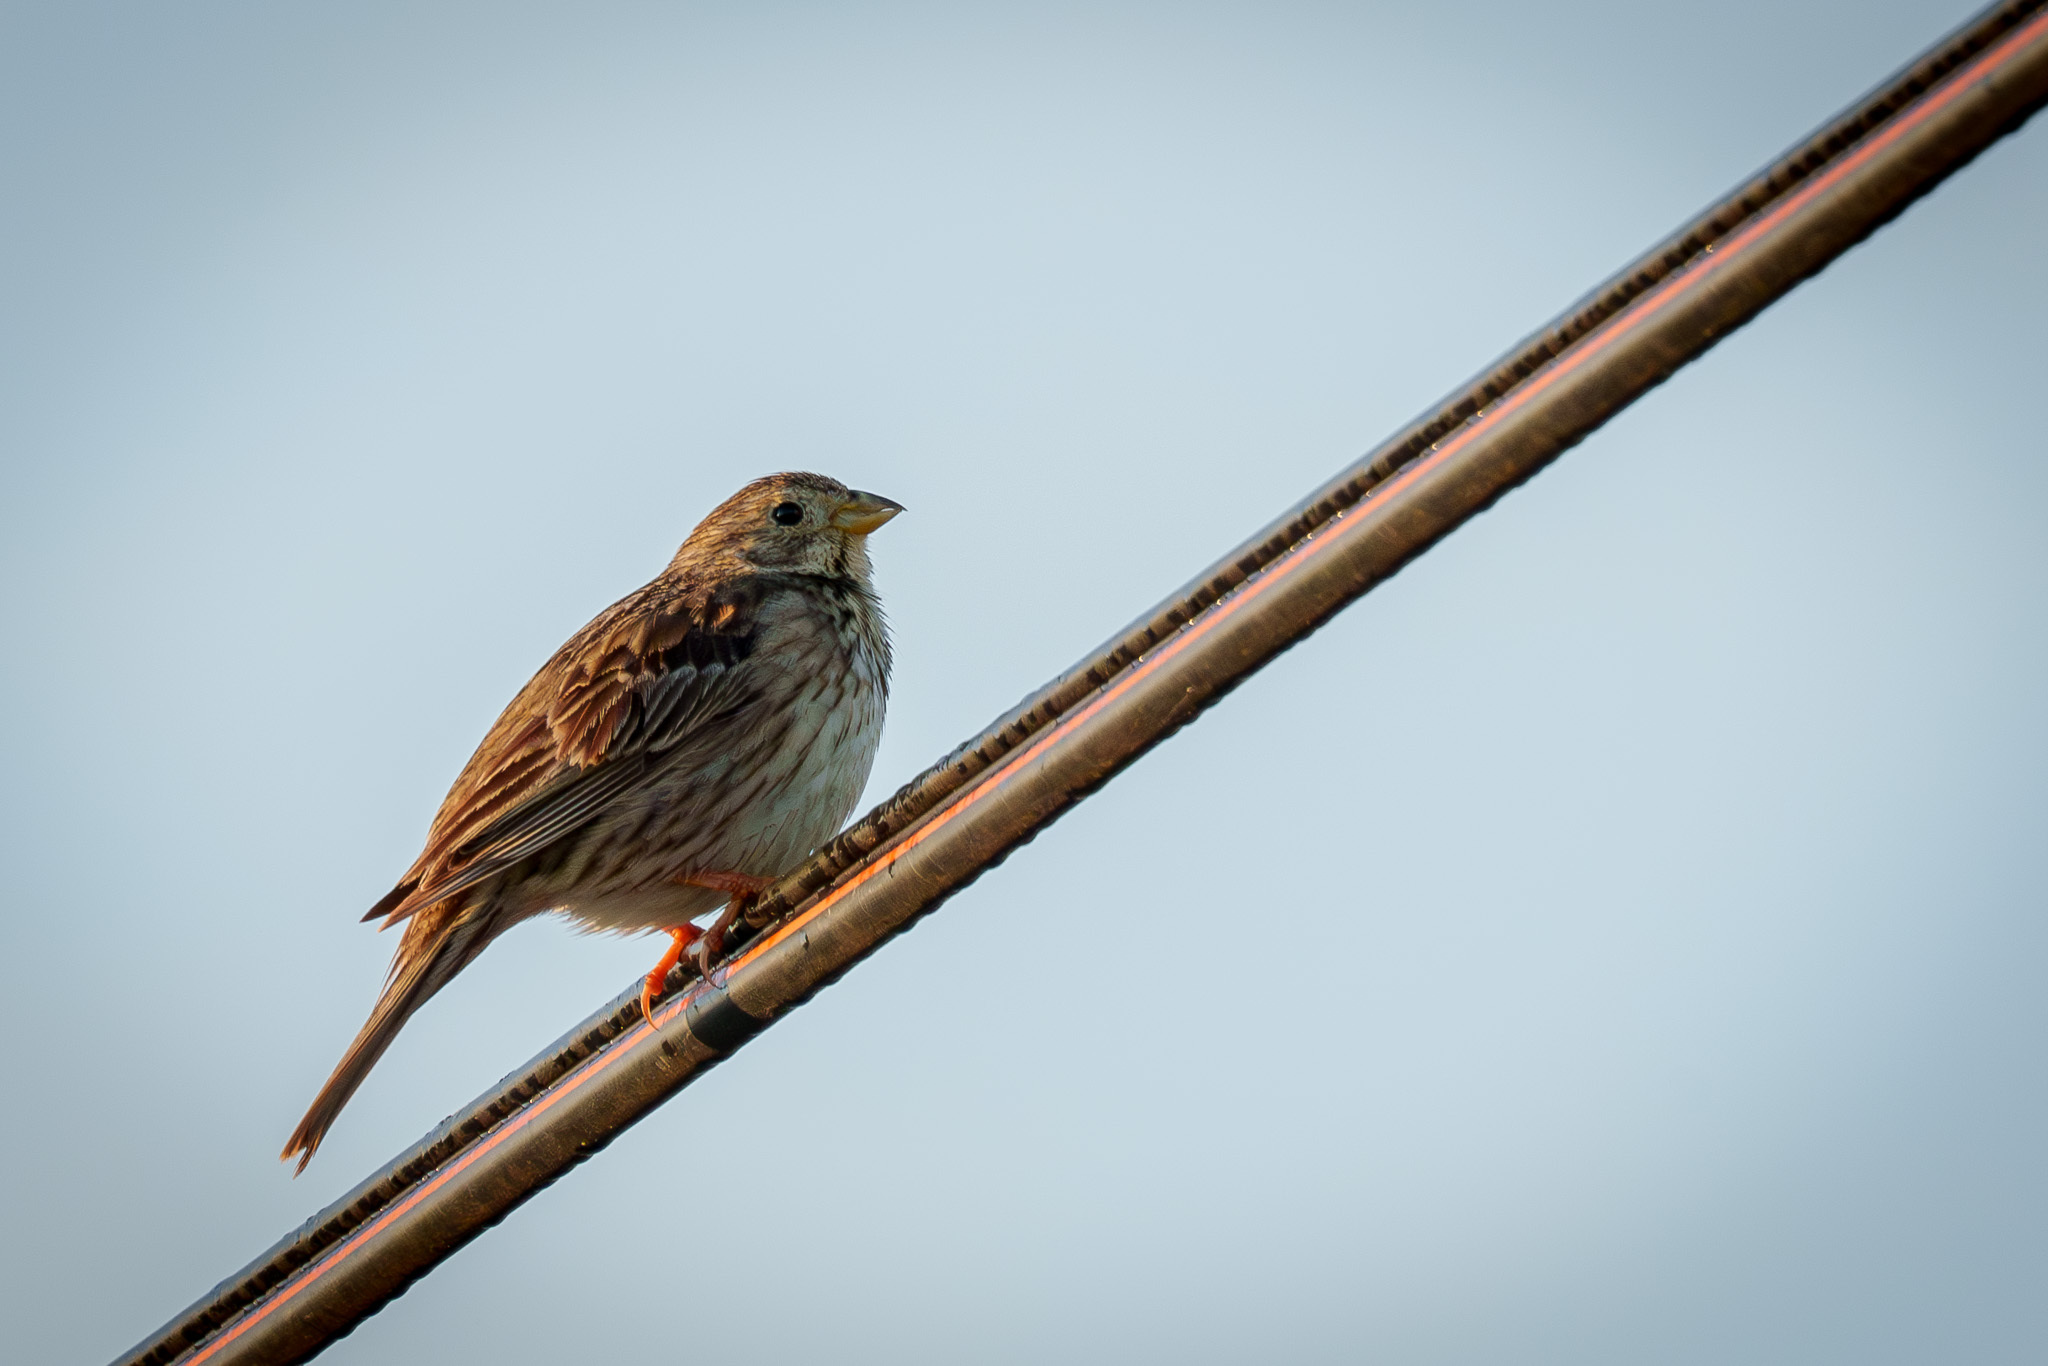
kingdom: Animalia
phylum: Chordata
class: Aves
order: Passeriformes
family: Emberizidae
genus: Emberiza
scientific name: Emberiza calandra
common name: Corn bunting
